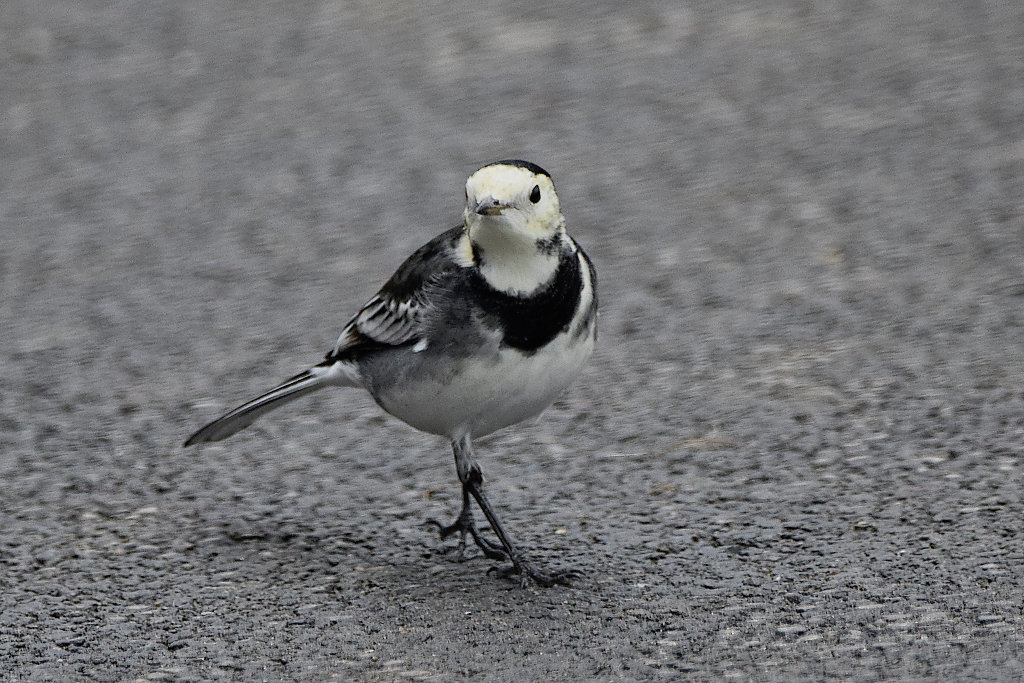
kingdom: Animalia
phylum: Chordata
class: Aves
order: Passeriformes
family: Motacillidae
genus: Motacilla
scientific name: Motacilla alba
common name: White wagtail
